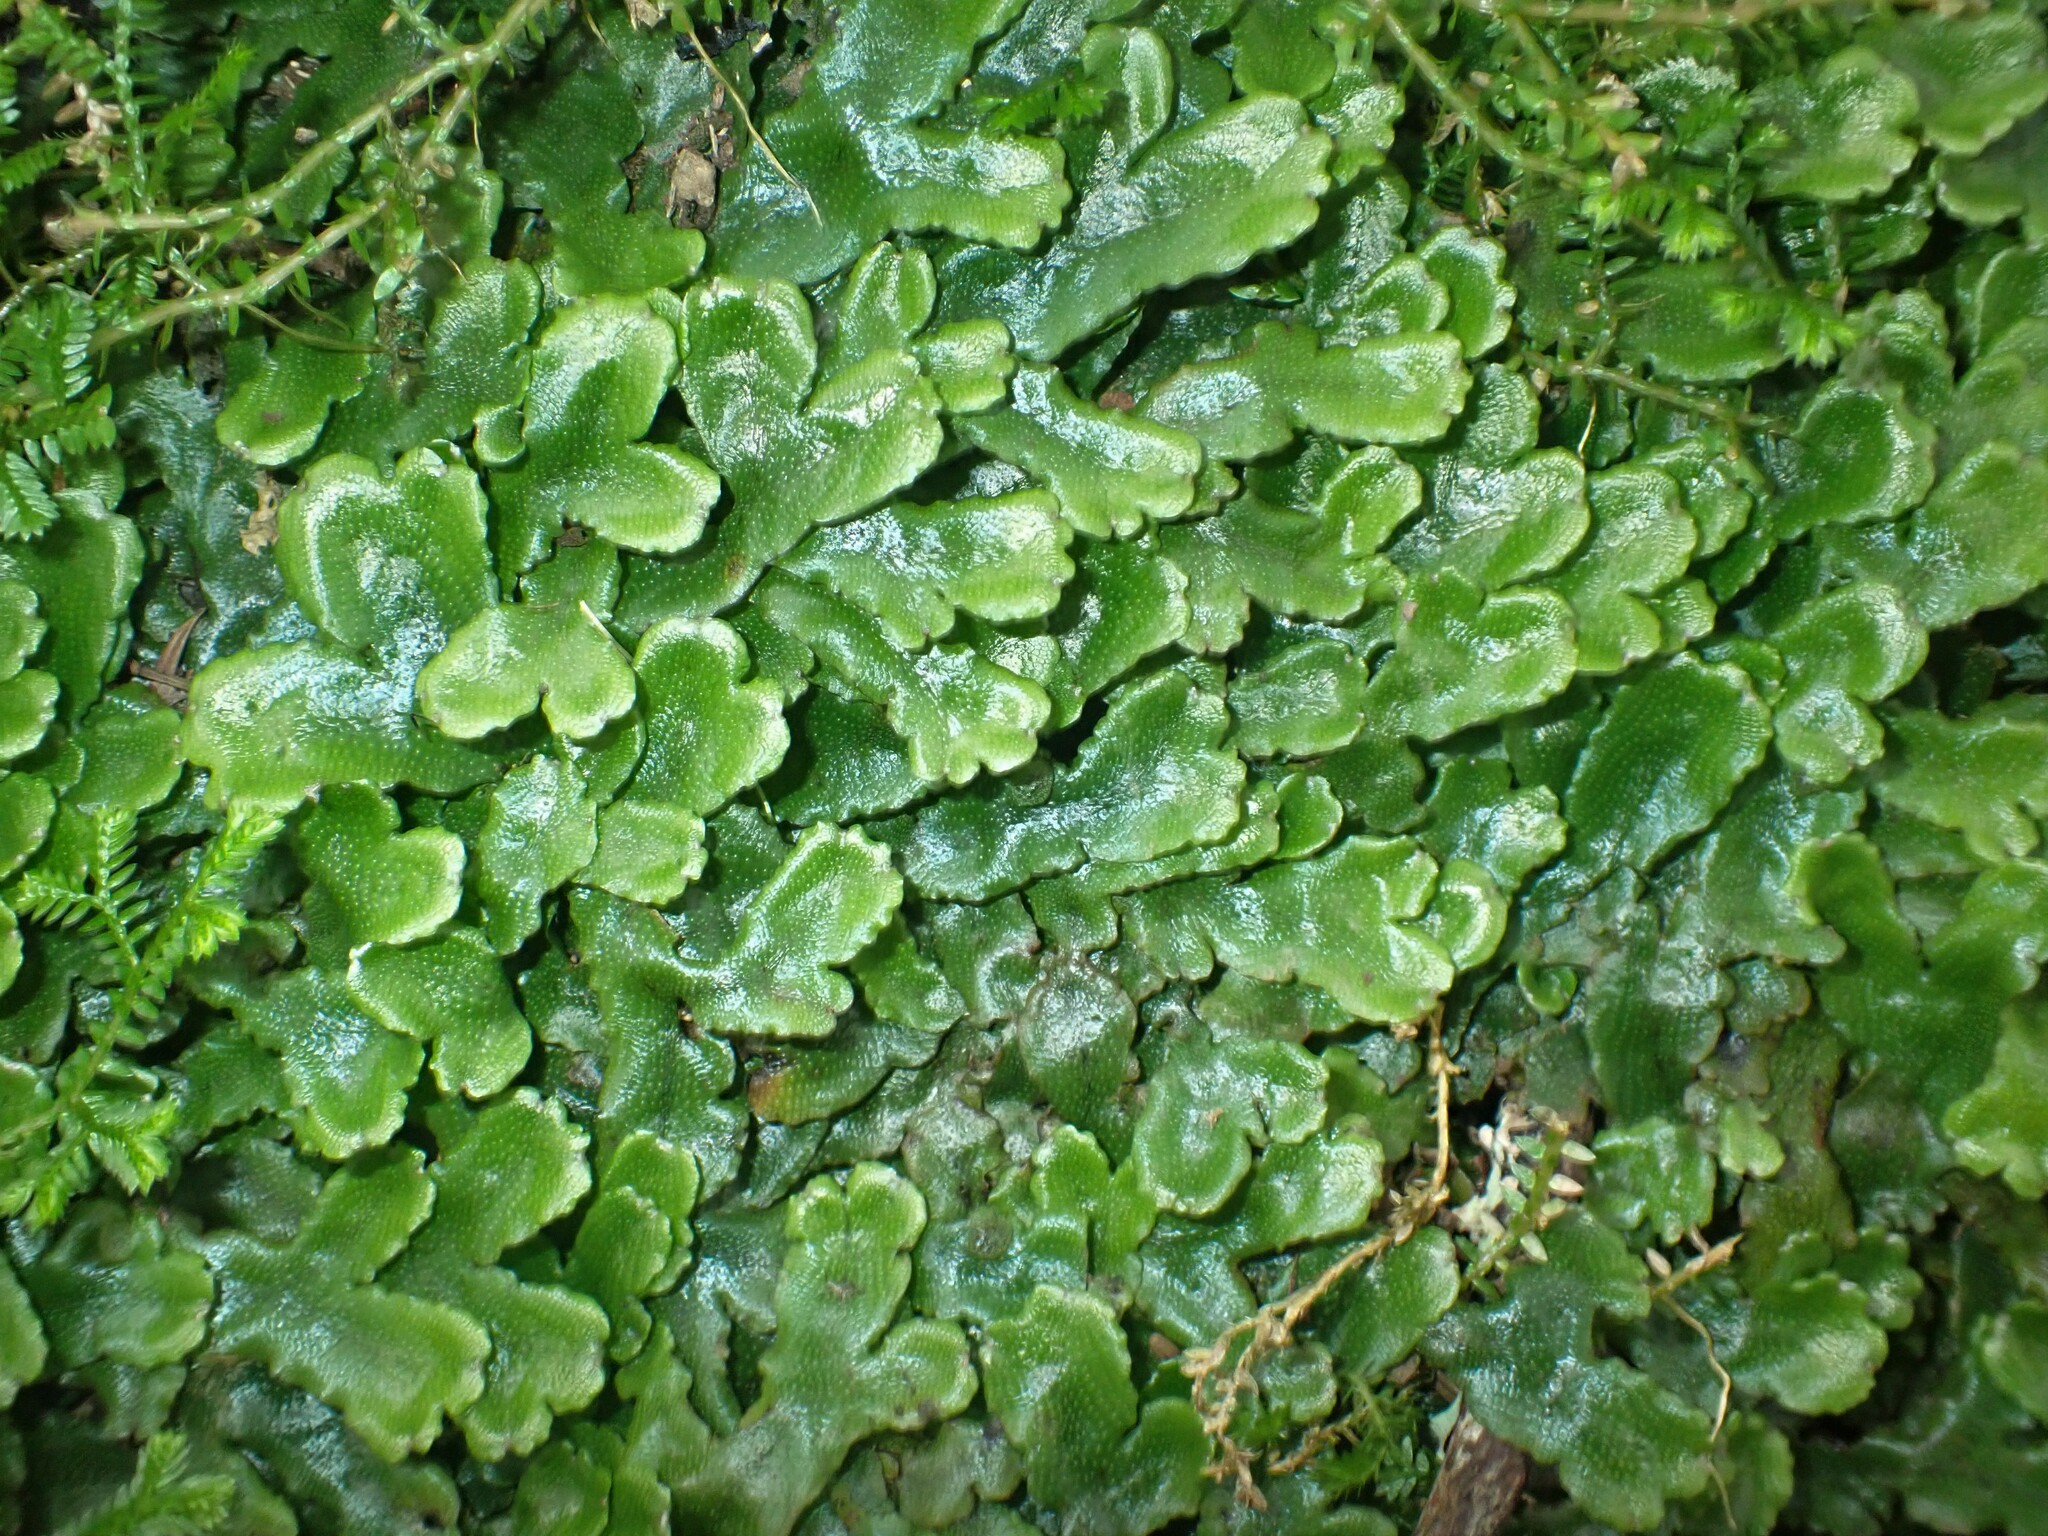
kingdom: Plantae
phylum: Marchantiophyta
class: Marchantiopsida
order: Marchantiales
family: Conocephalaceae
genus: Conocephalum
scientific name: Conocephalum conicum
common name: Great scented liverwort
